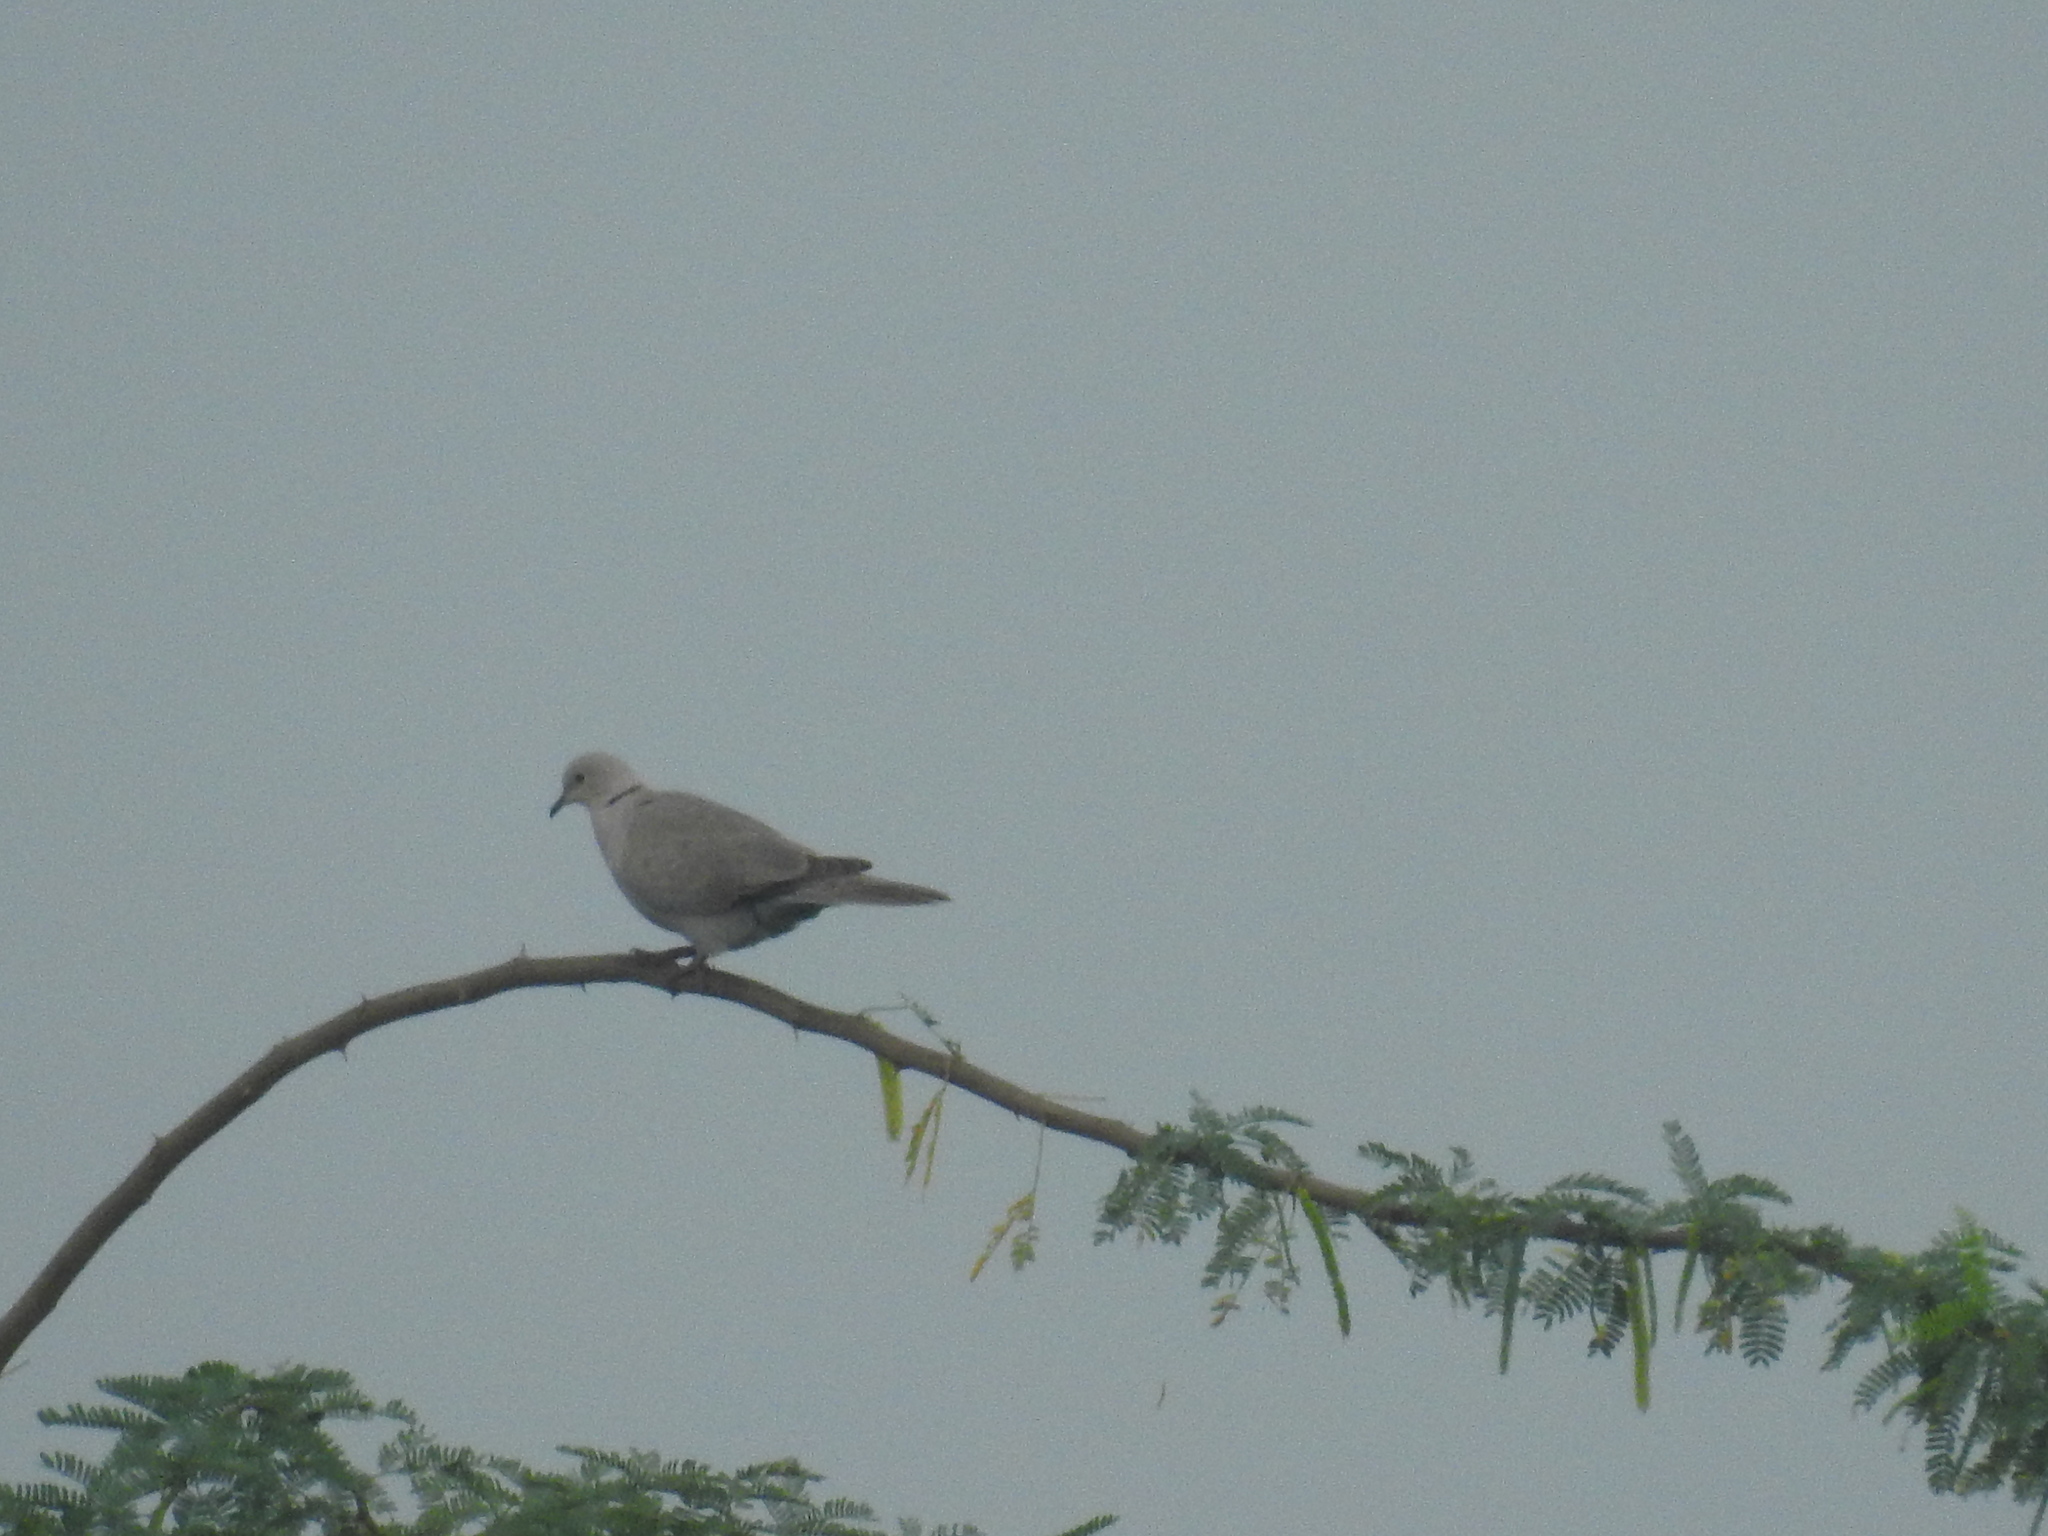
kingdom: Animalia
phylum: Chordata
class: Aves
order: Columbiformes
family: Columbidae
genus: Streptopelia
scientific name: Streptopelia decaocto
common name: Eurasian collared dove
